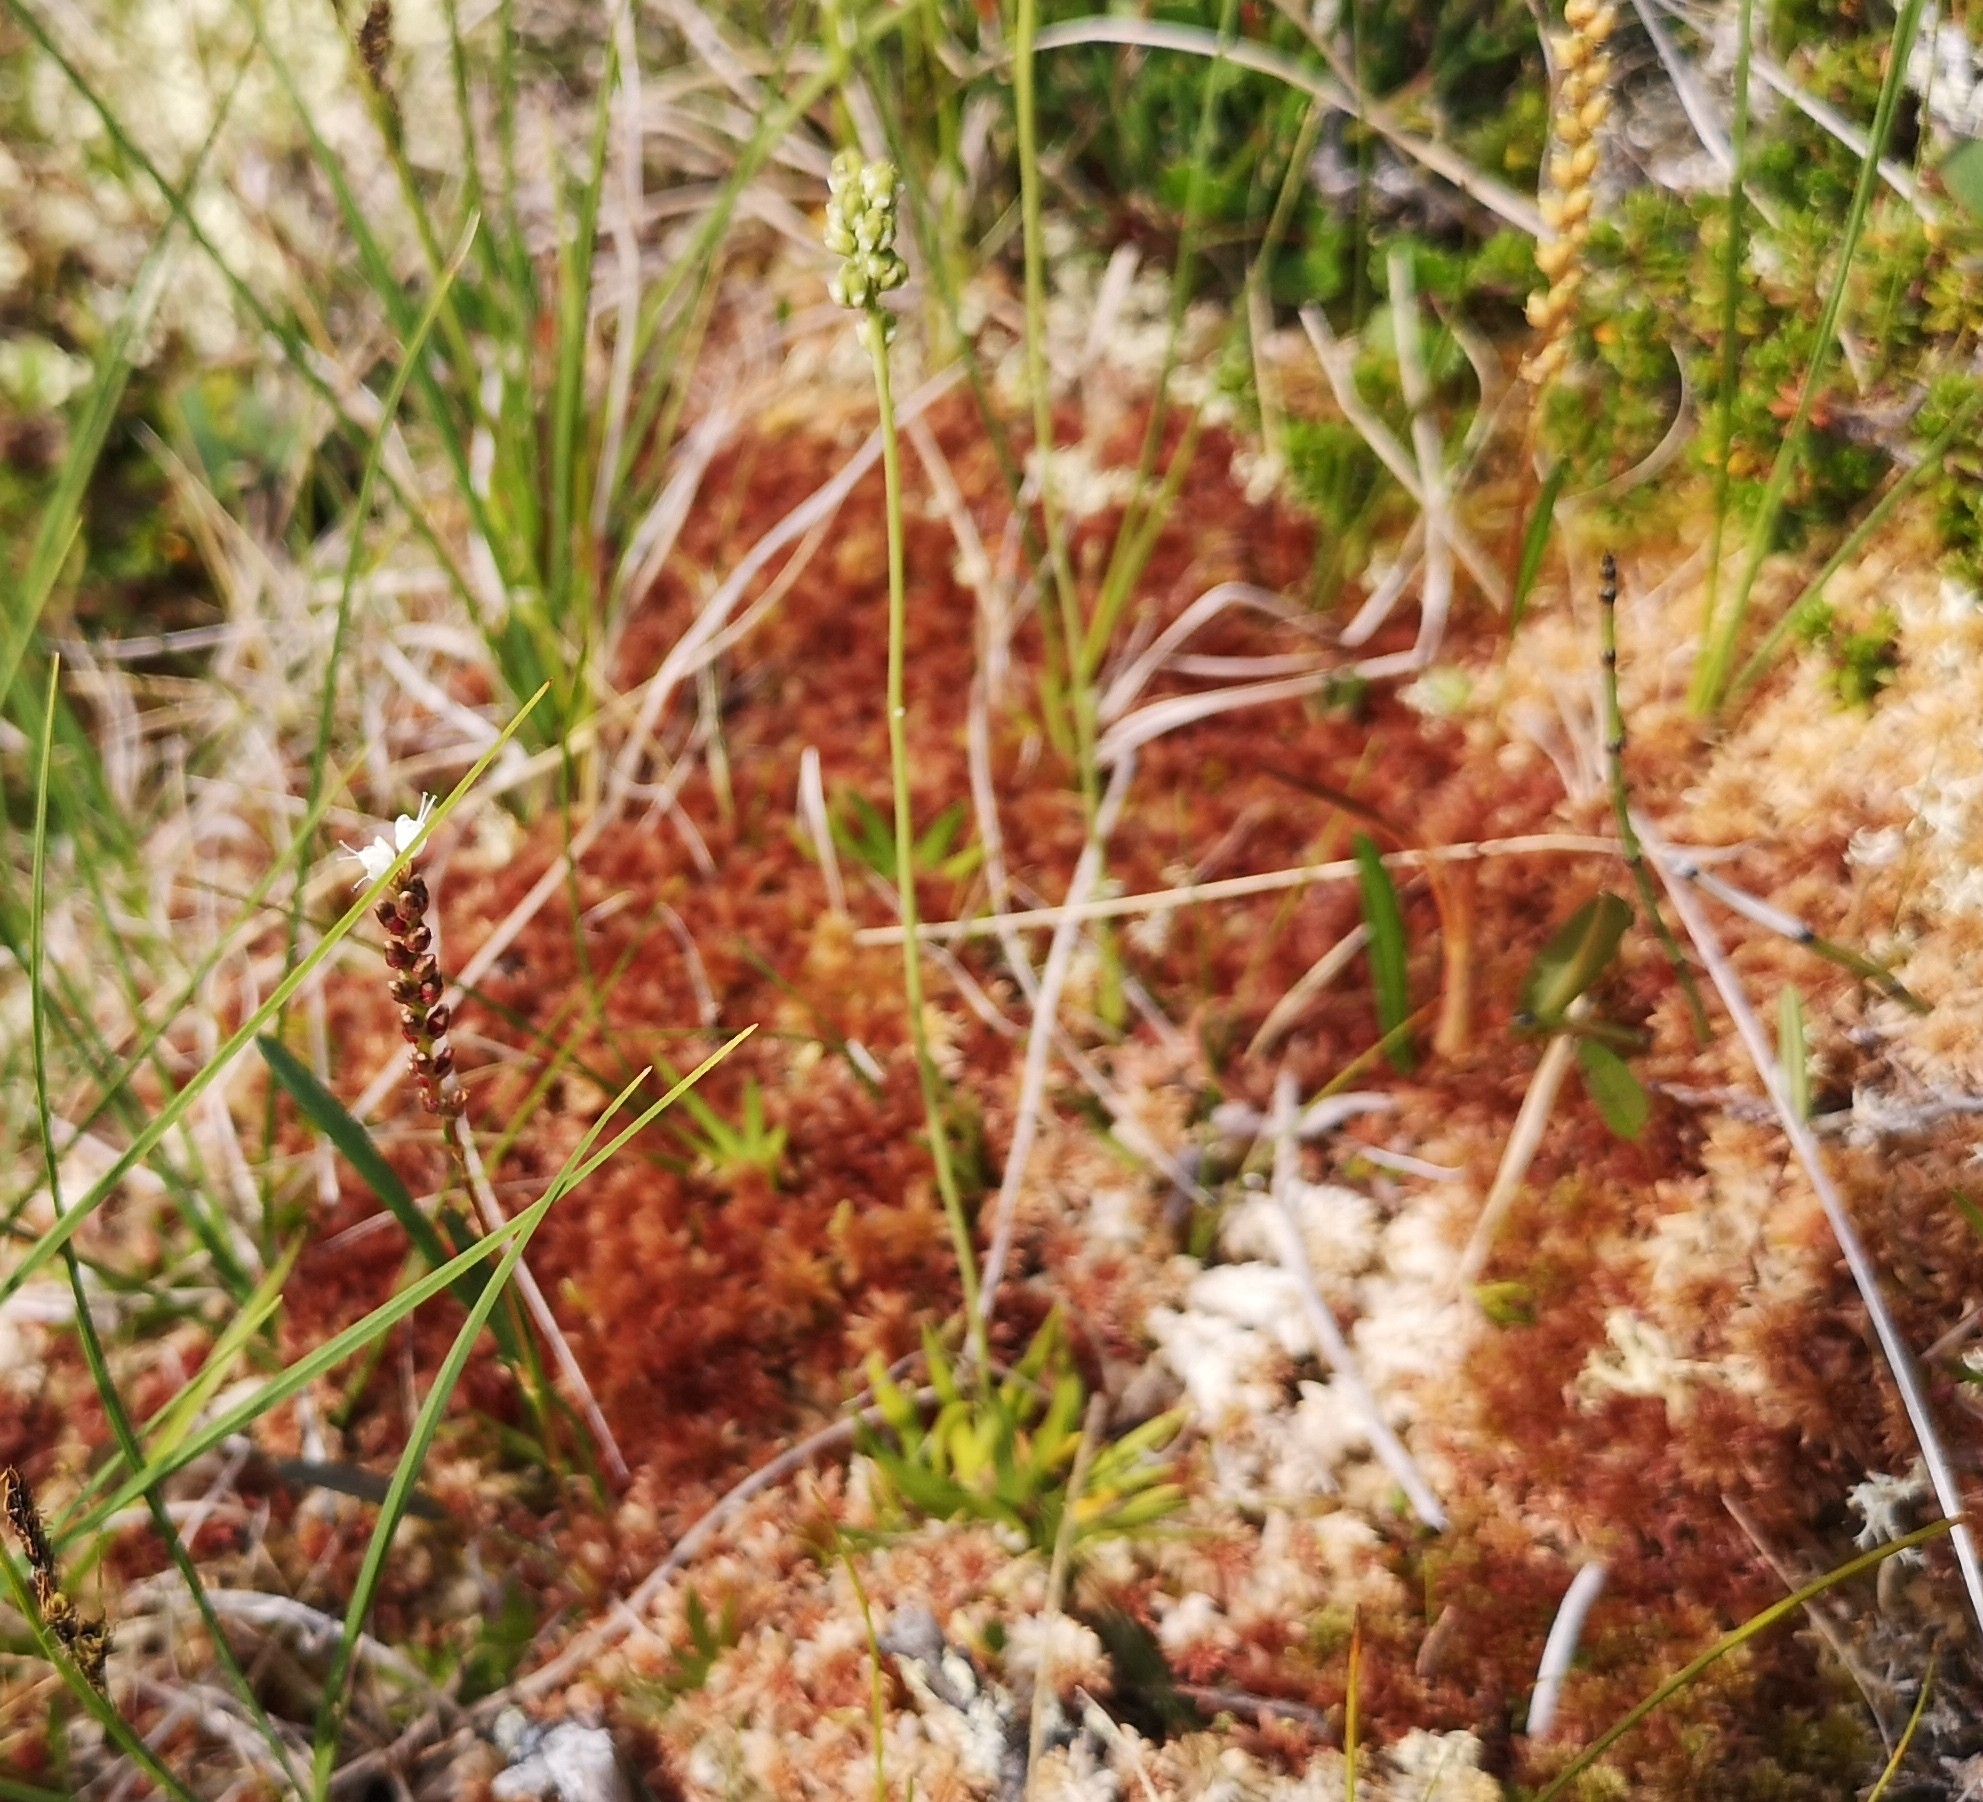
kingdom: Plantae
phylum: Tracheophyta
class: Liliopsida
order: Alismatales
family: Tofieldiaceae
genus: Tofieldia
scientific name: Tofieldia pusilla
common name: Scottish false asphodel
